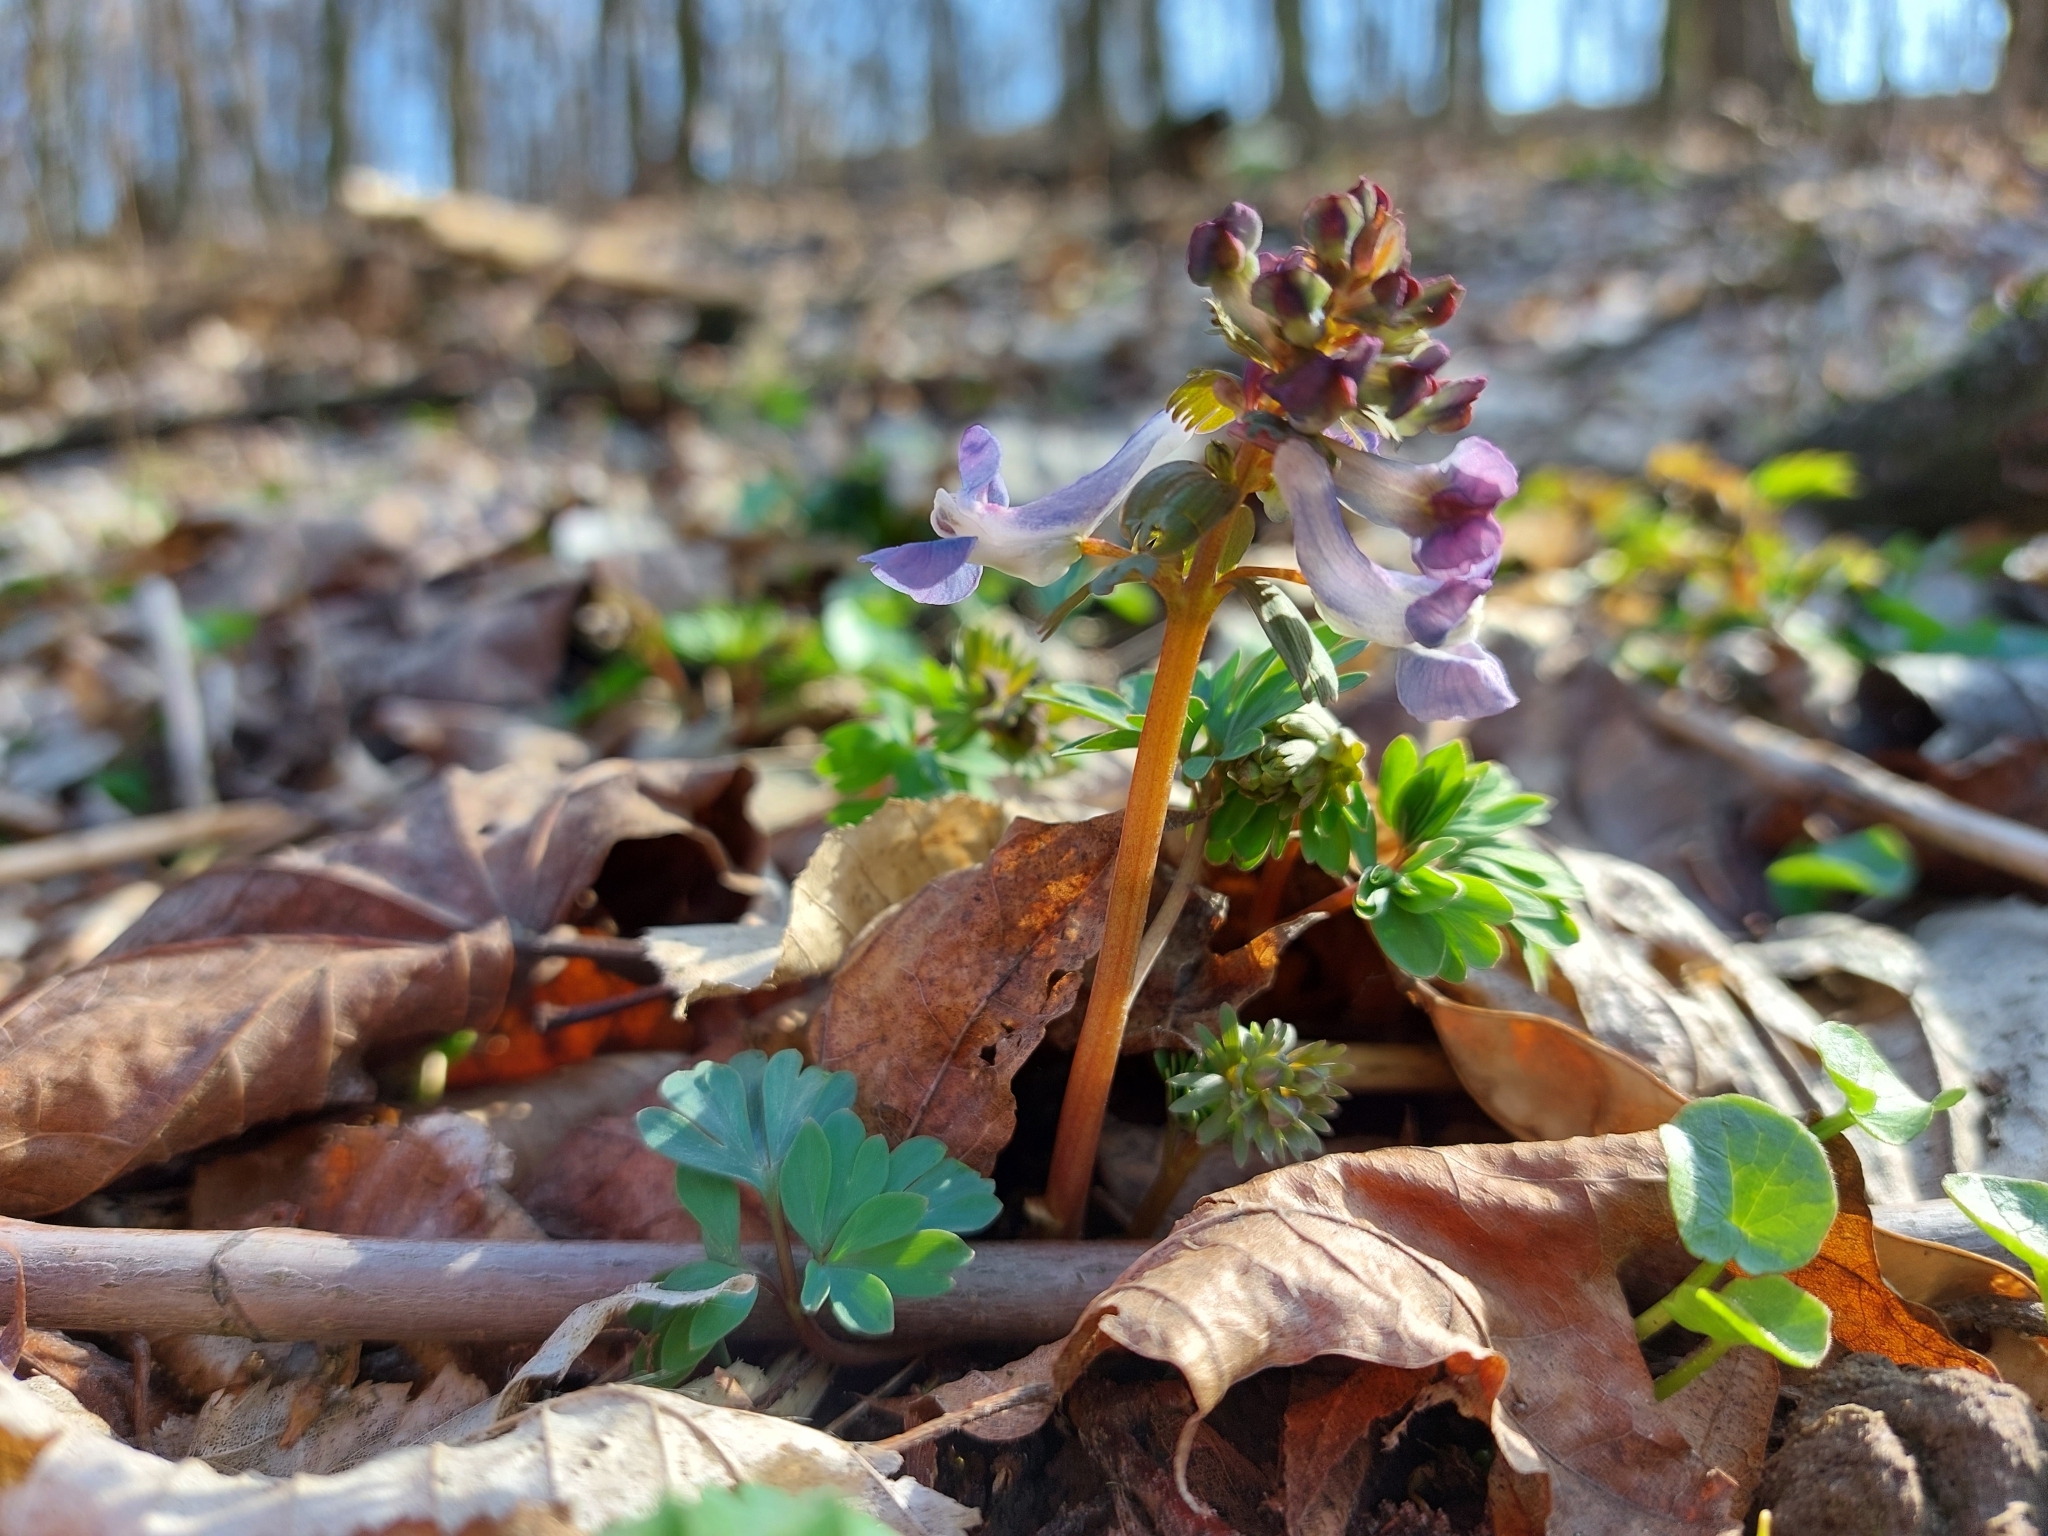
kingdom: Plantae
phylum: Tracheophyta
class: Magnoliopsida
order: Ranunculales
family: Papaveraceae
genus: Corydalis
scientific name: Corydalis solida
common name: Bird-in-a-bush
